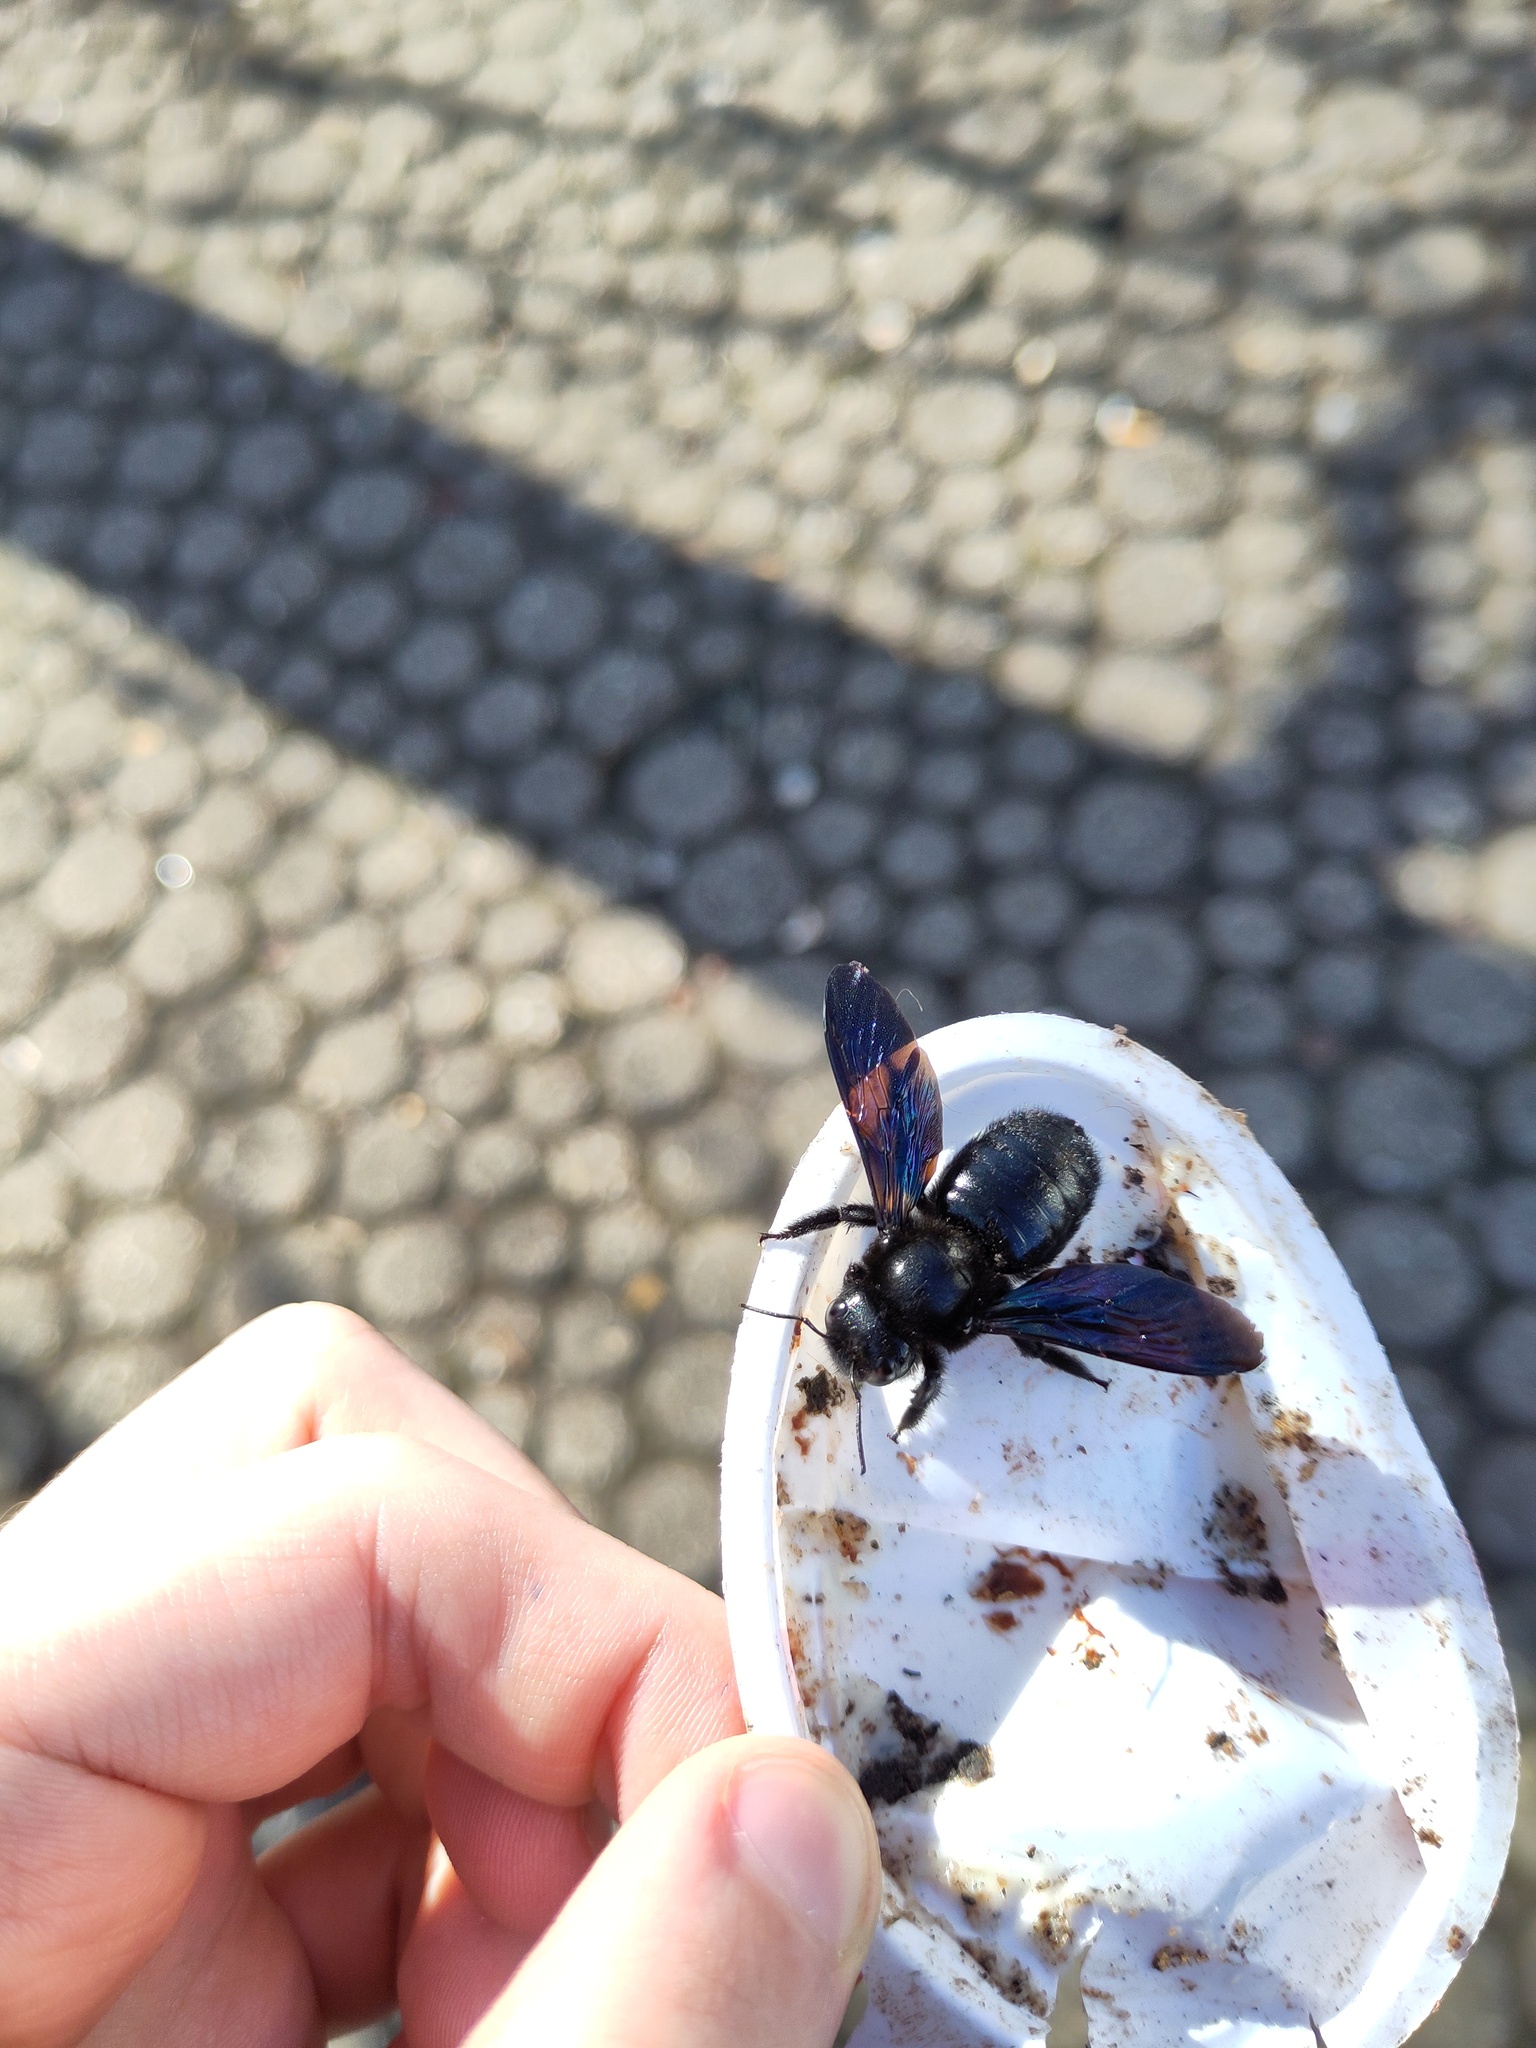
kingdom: Animalia
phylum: Arthropoda
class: Insecta
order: Hymenoptera
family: Apidae
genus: Xylocopa
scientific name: Xylocopa violacea
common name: Violet carpenter bee
